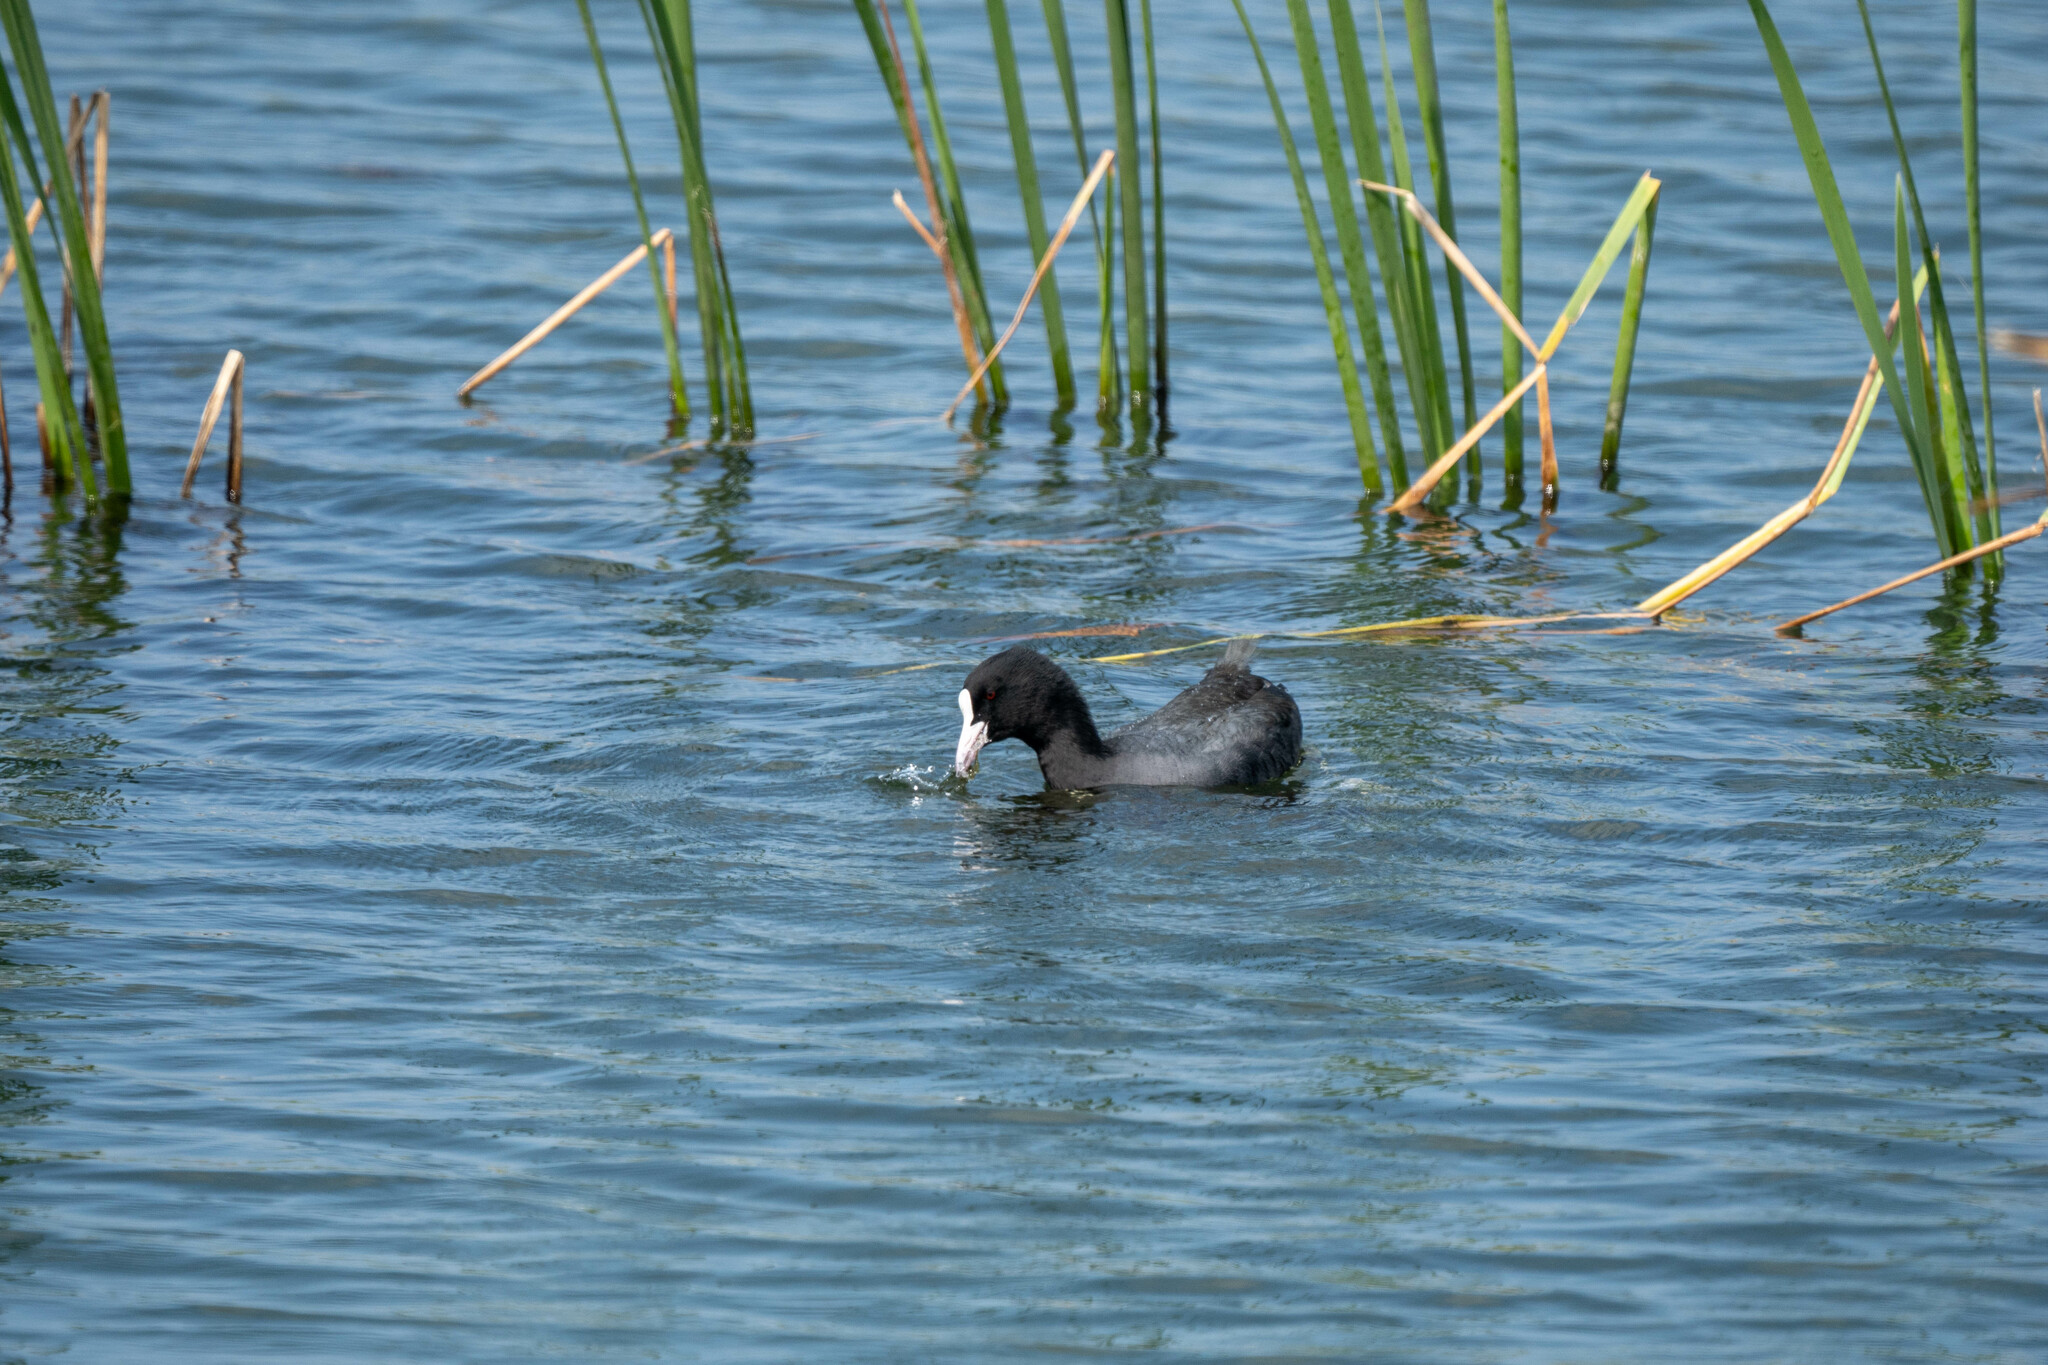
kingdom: Animalia
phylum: Chordata
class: Aves
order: Gruiformes
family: Rallidae
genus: Fulica
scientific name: Fulica atra
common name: Eurasian coot
